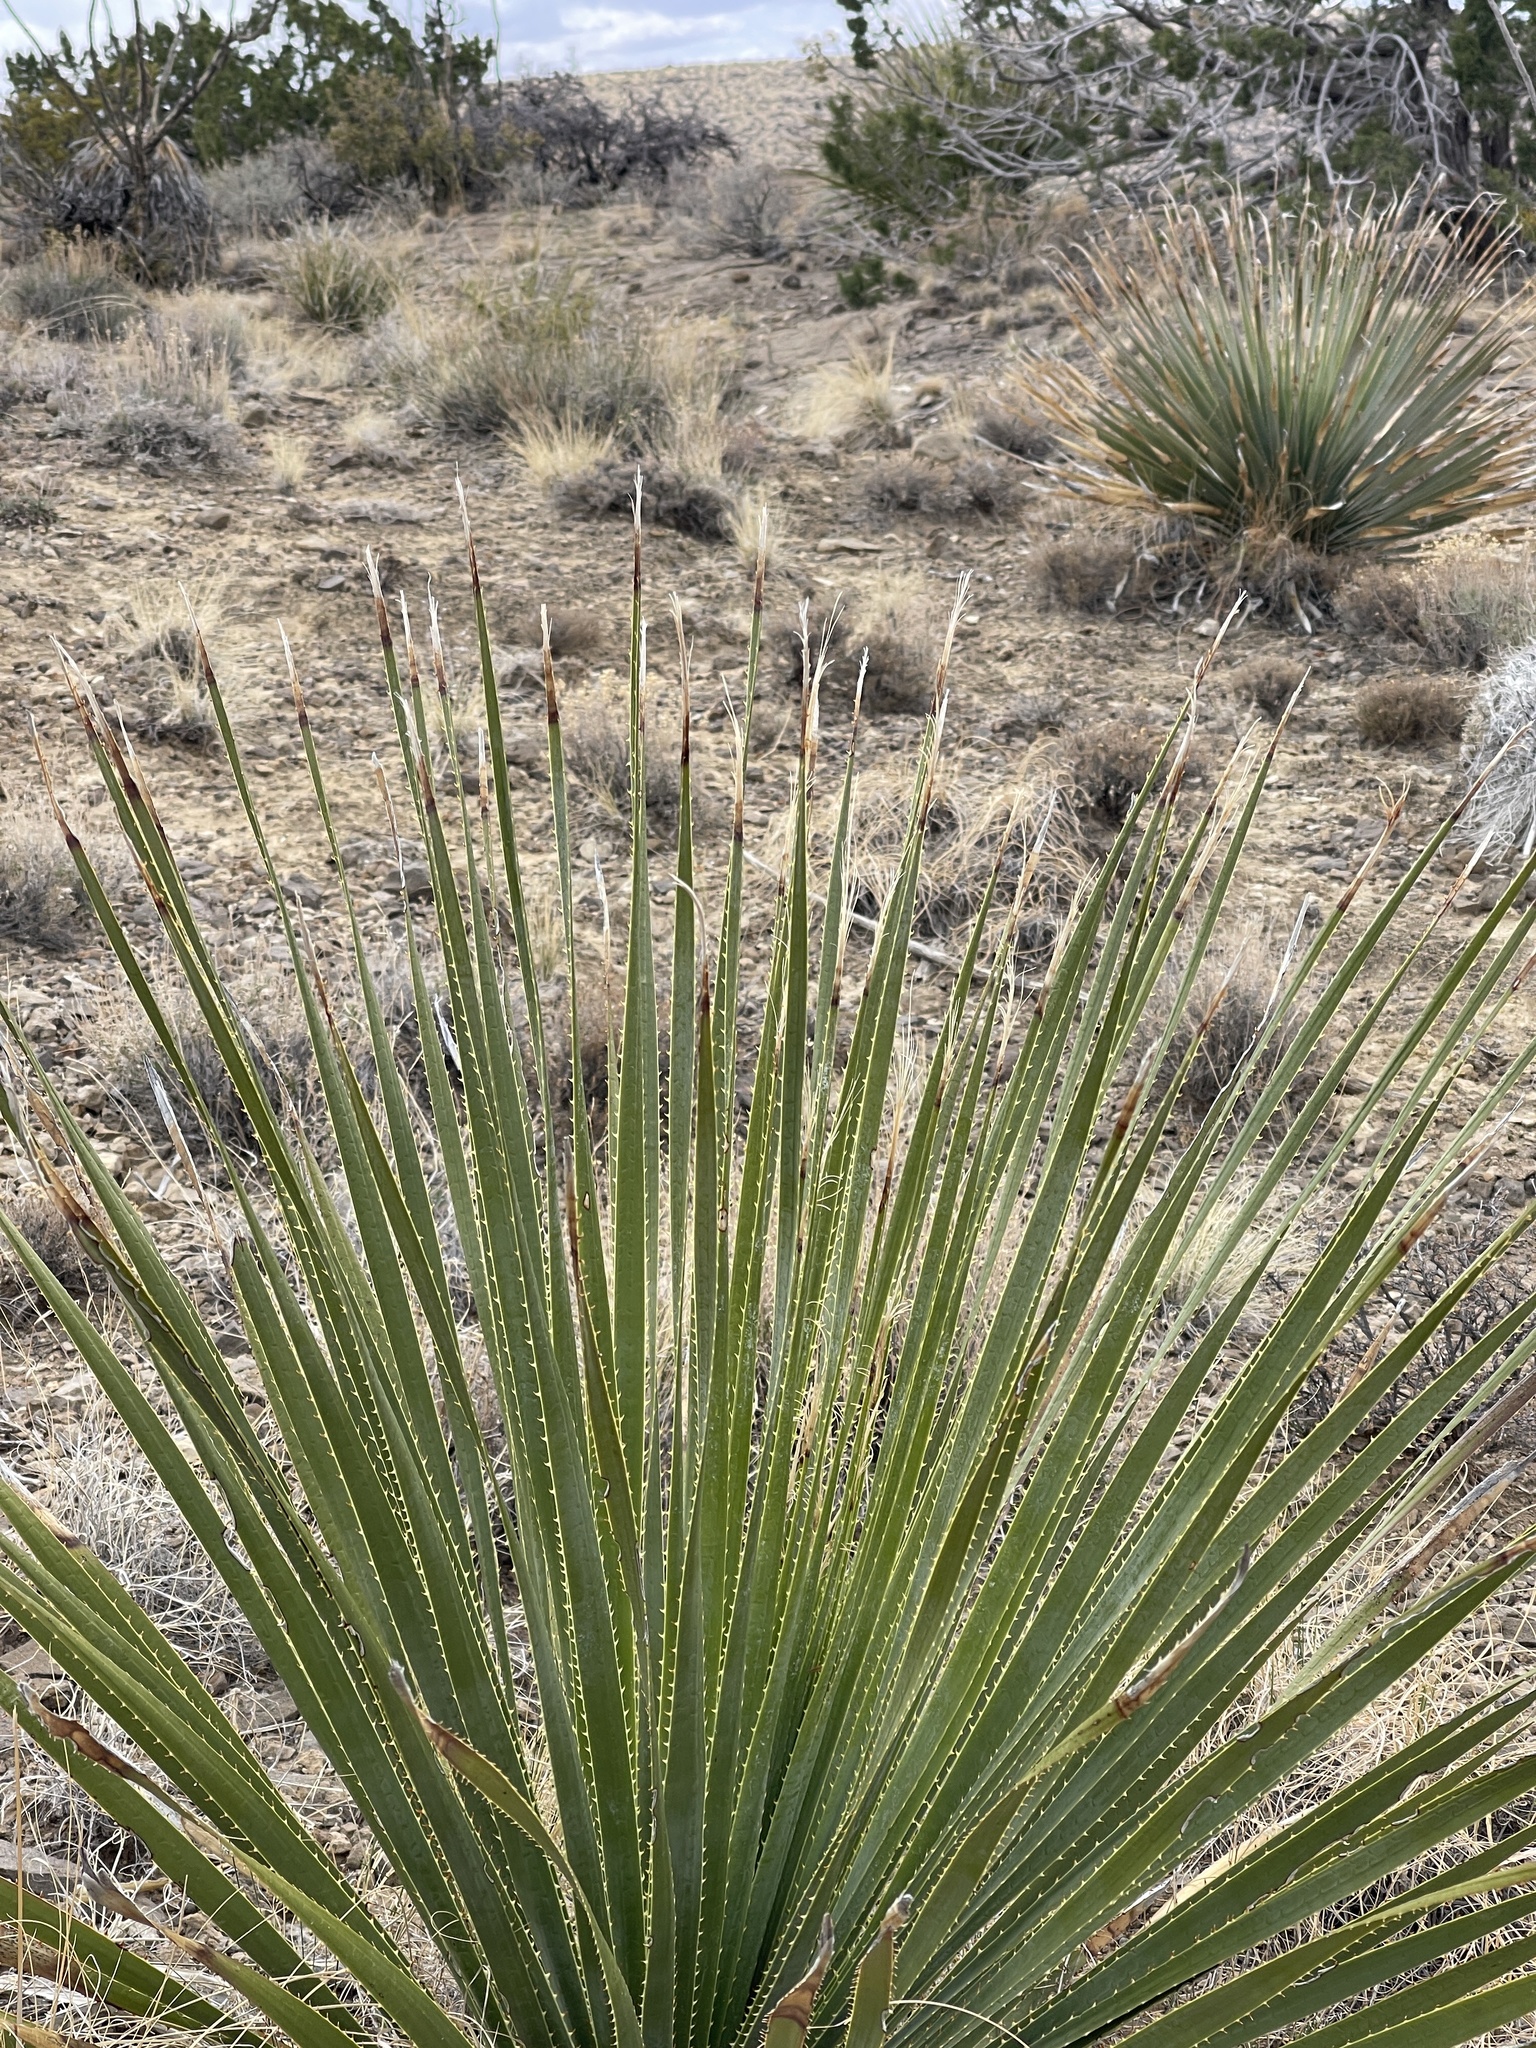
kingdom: Plantae
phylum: Tracheophyta
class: Liliopsida
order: Asparagales
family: Asparagaceae
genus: Dasylirion
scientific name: Dasylirion wheeleri
